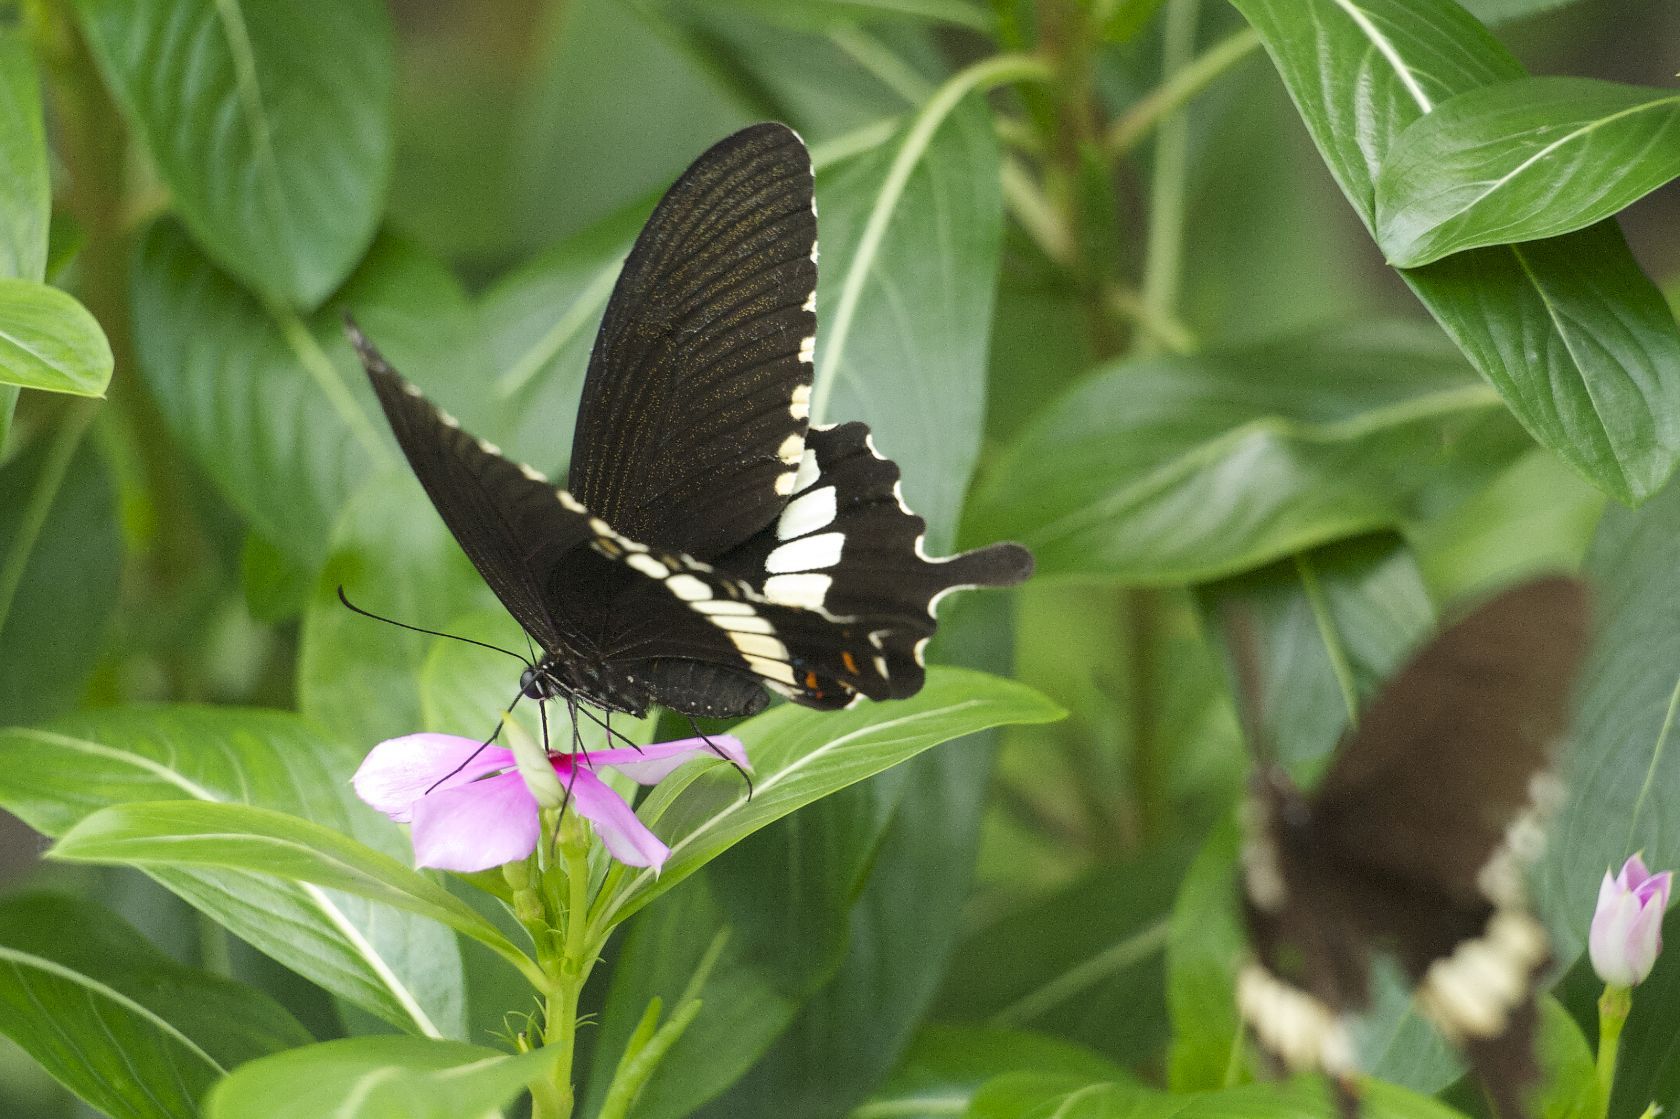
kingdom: Animalia
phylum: Arthropoda
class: Insecta
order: Lepidoptera
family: Papilionidae
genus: Papilio
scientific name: Papilio polytes
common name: Common mormon
